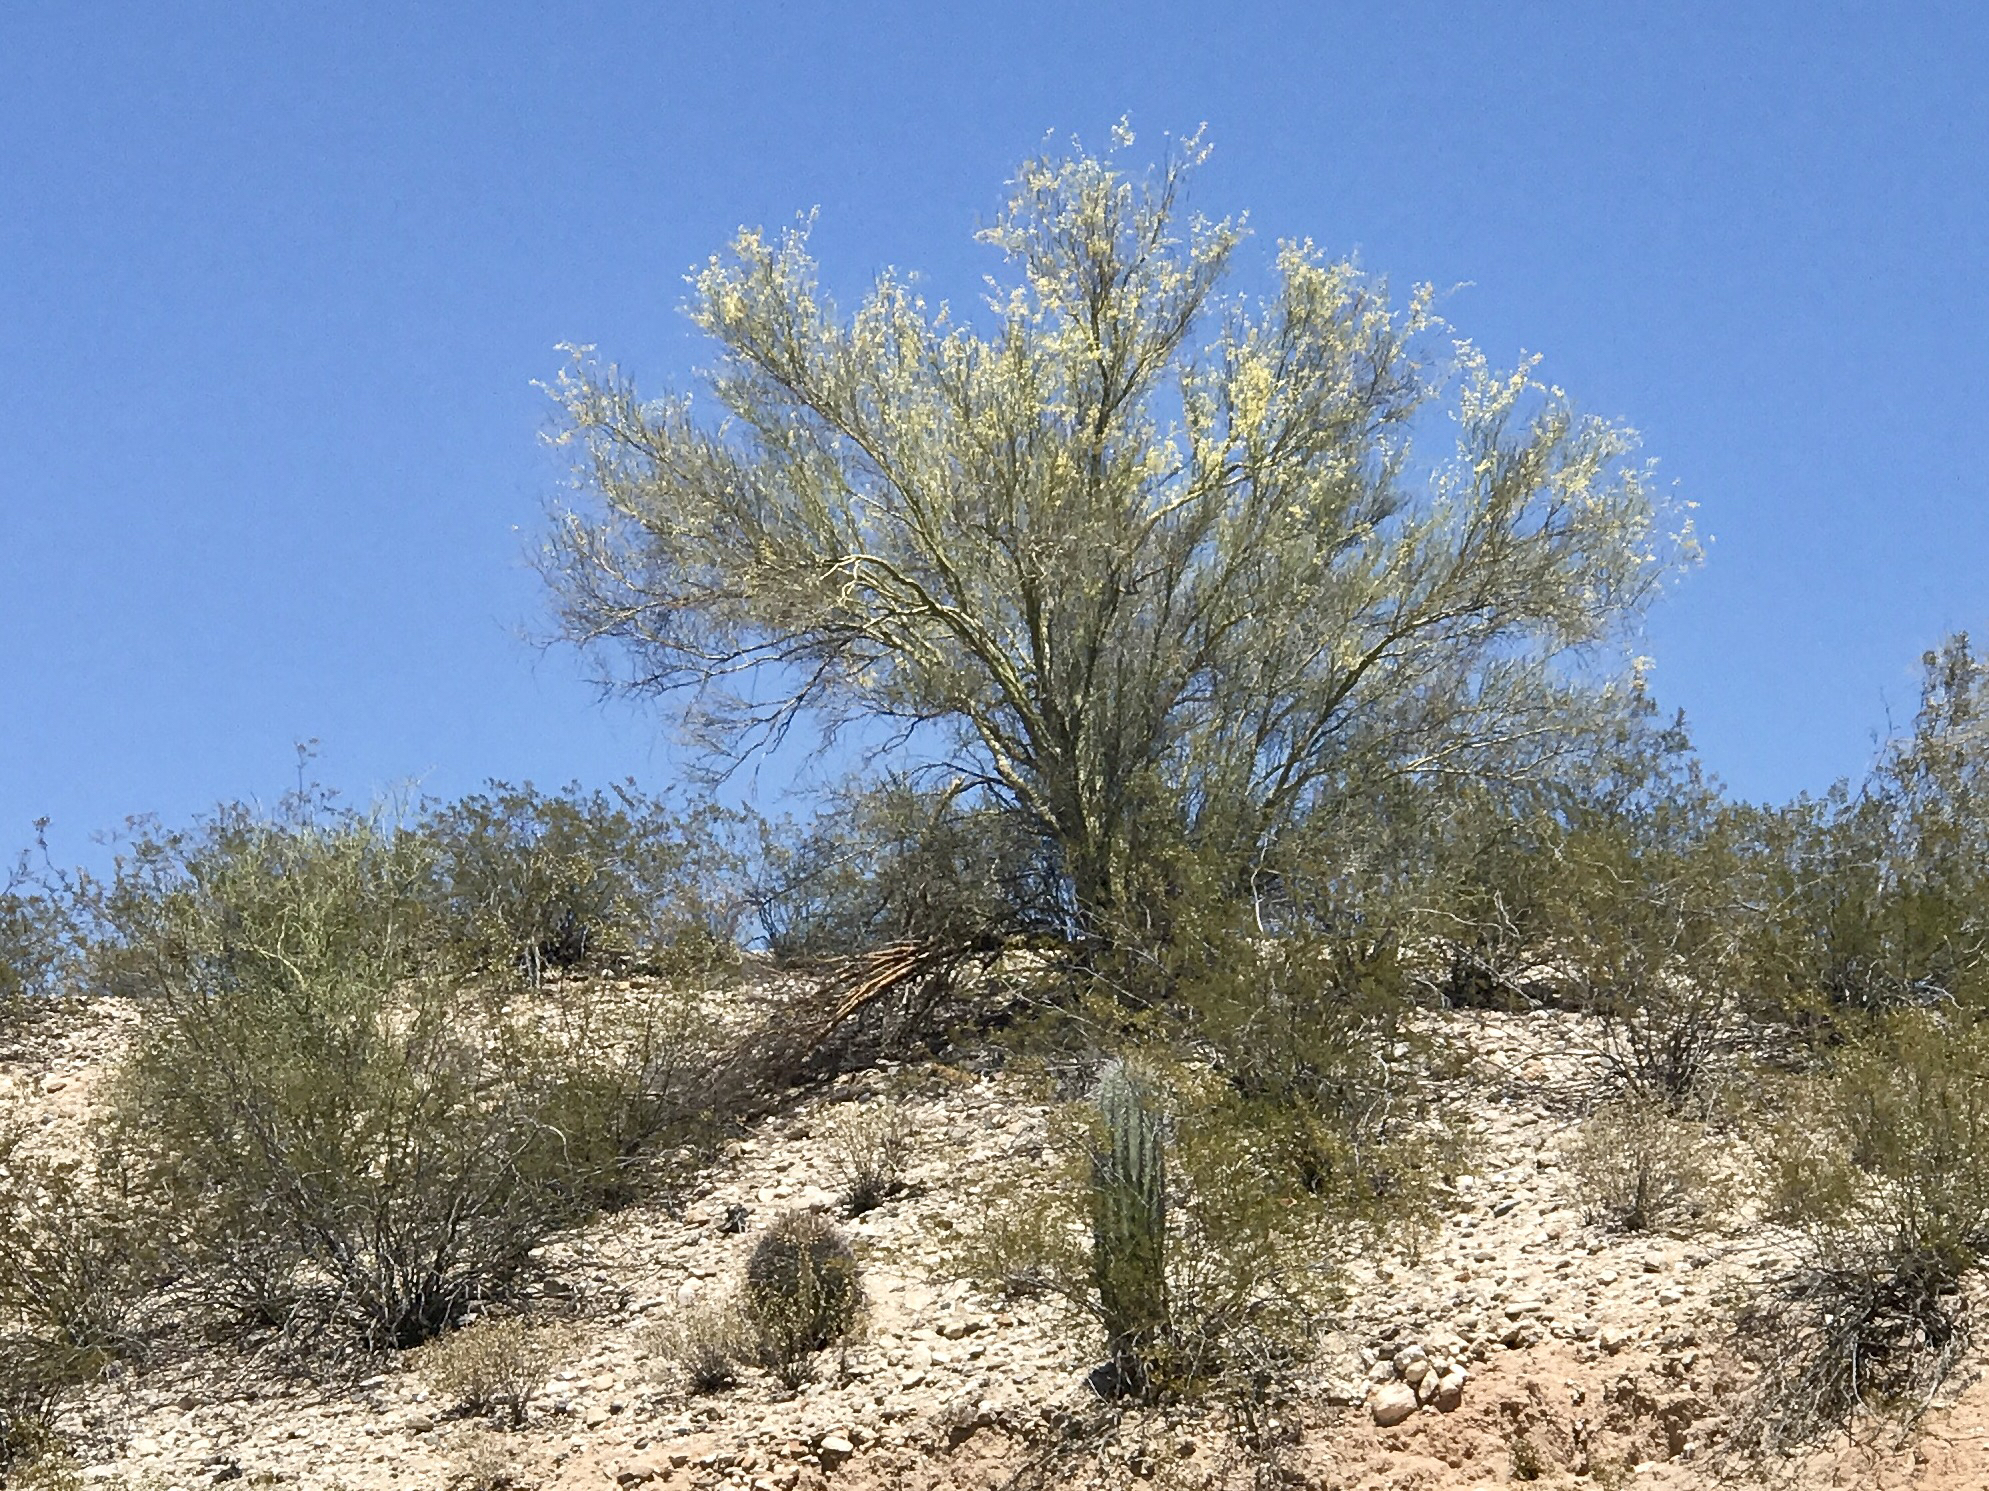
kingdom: Plantae
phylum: Tracheophyta
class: Magnoliopsida
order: Caryophyllales
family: Cactaceae
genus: Carnegiea
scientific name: Carnegiea gigantea
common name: Saguaro
